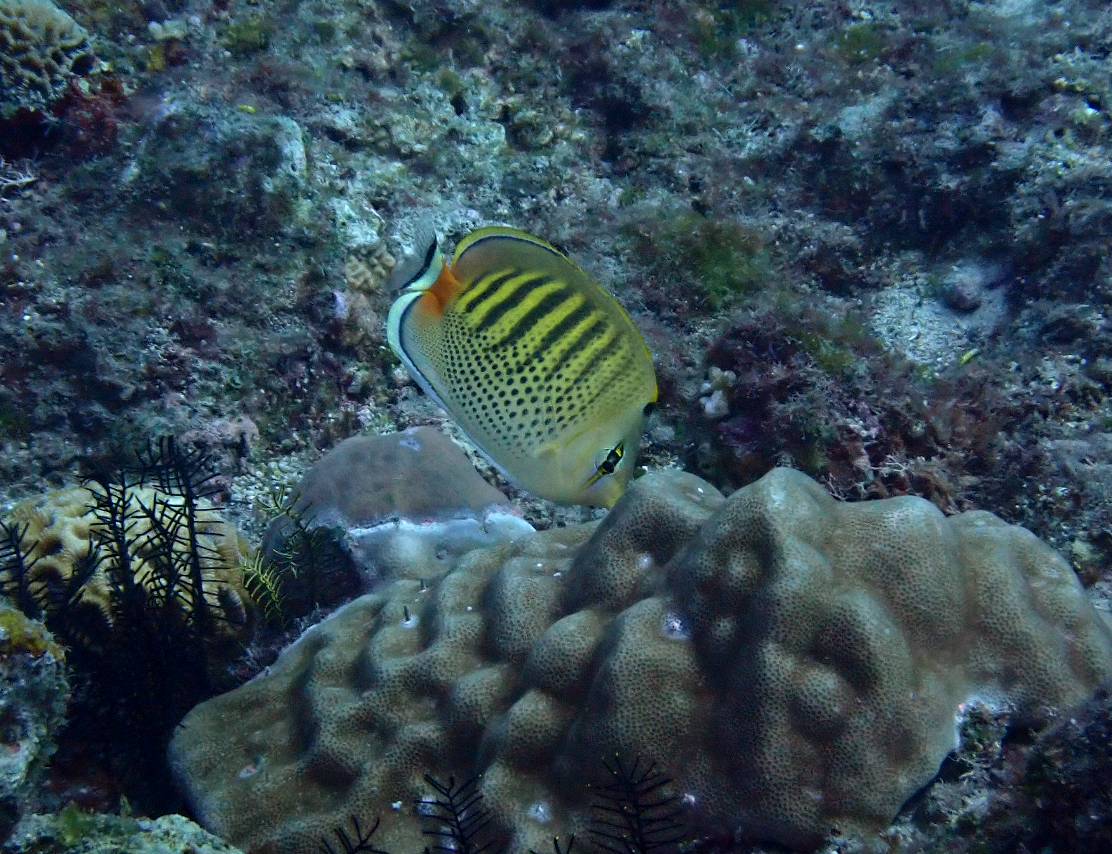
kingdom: Animalia
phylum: Chordata
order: Perciformes
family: Chaetodontidae
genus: Chaetodon
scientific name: Chaetodon punctatofasciatus
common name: Spot-banded butterflyfish
